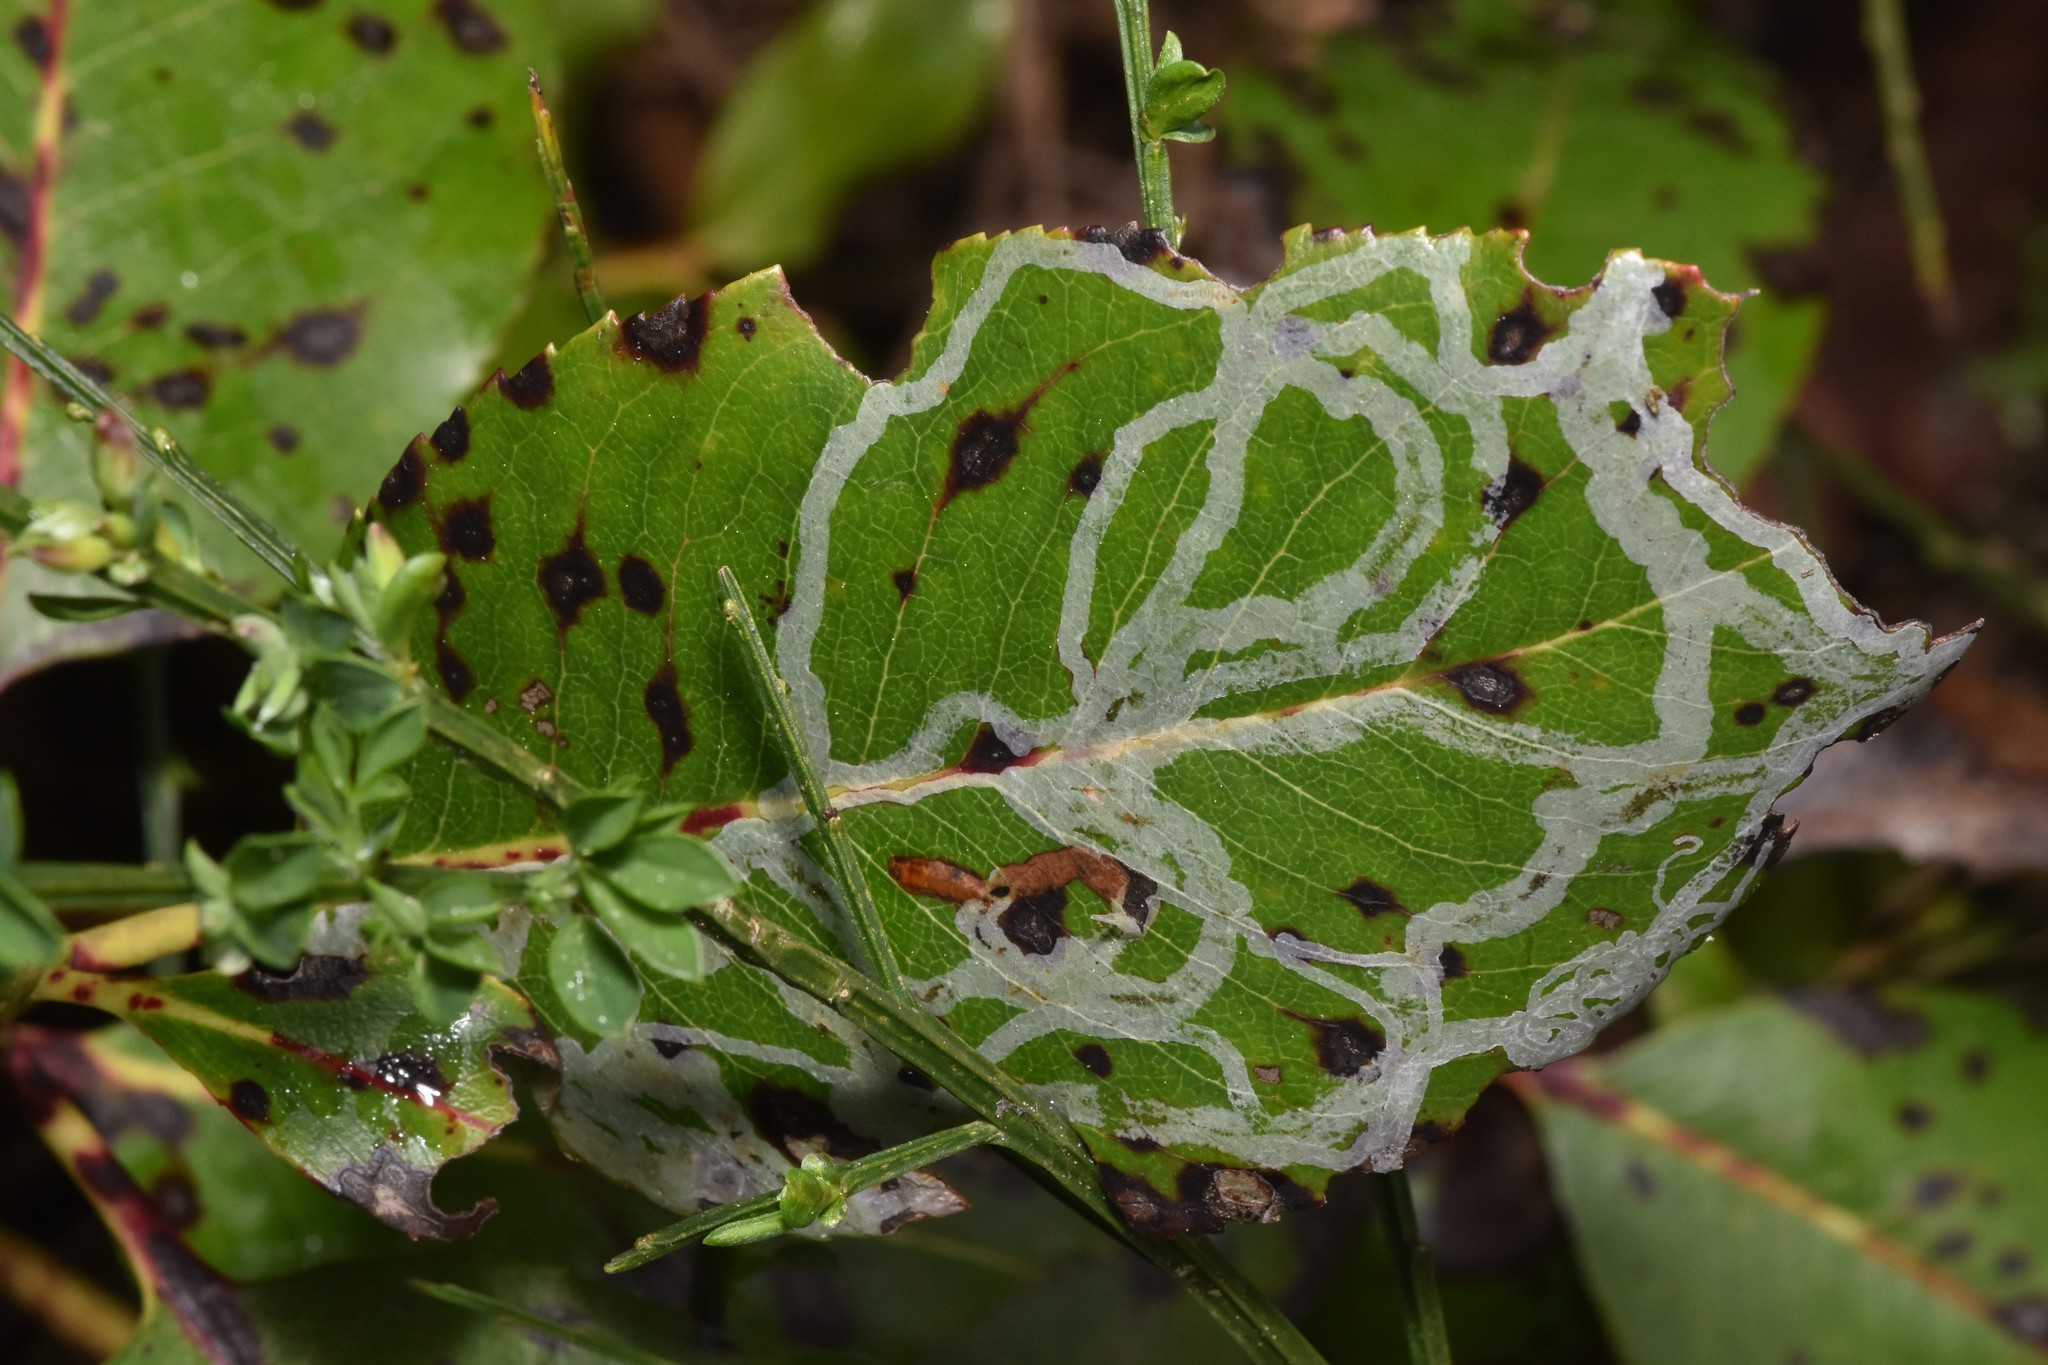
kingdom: Animalia
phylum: Arthropoda
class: Insecta
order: Lepidoptera
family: Gracillariidae
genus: Marmara
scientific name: Marmara arbutiella
